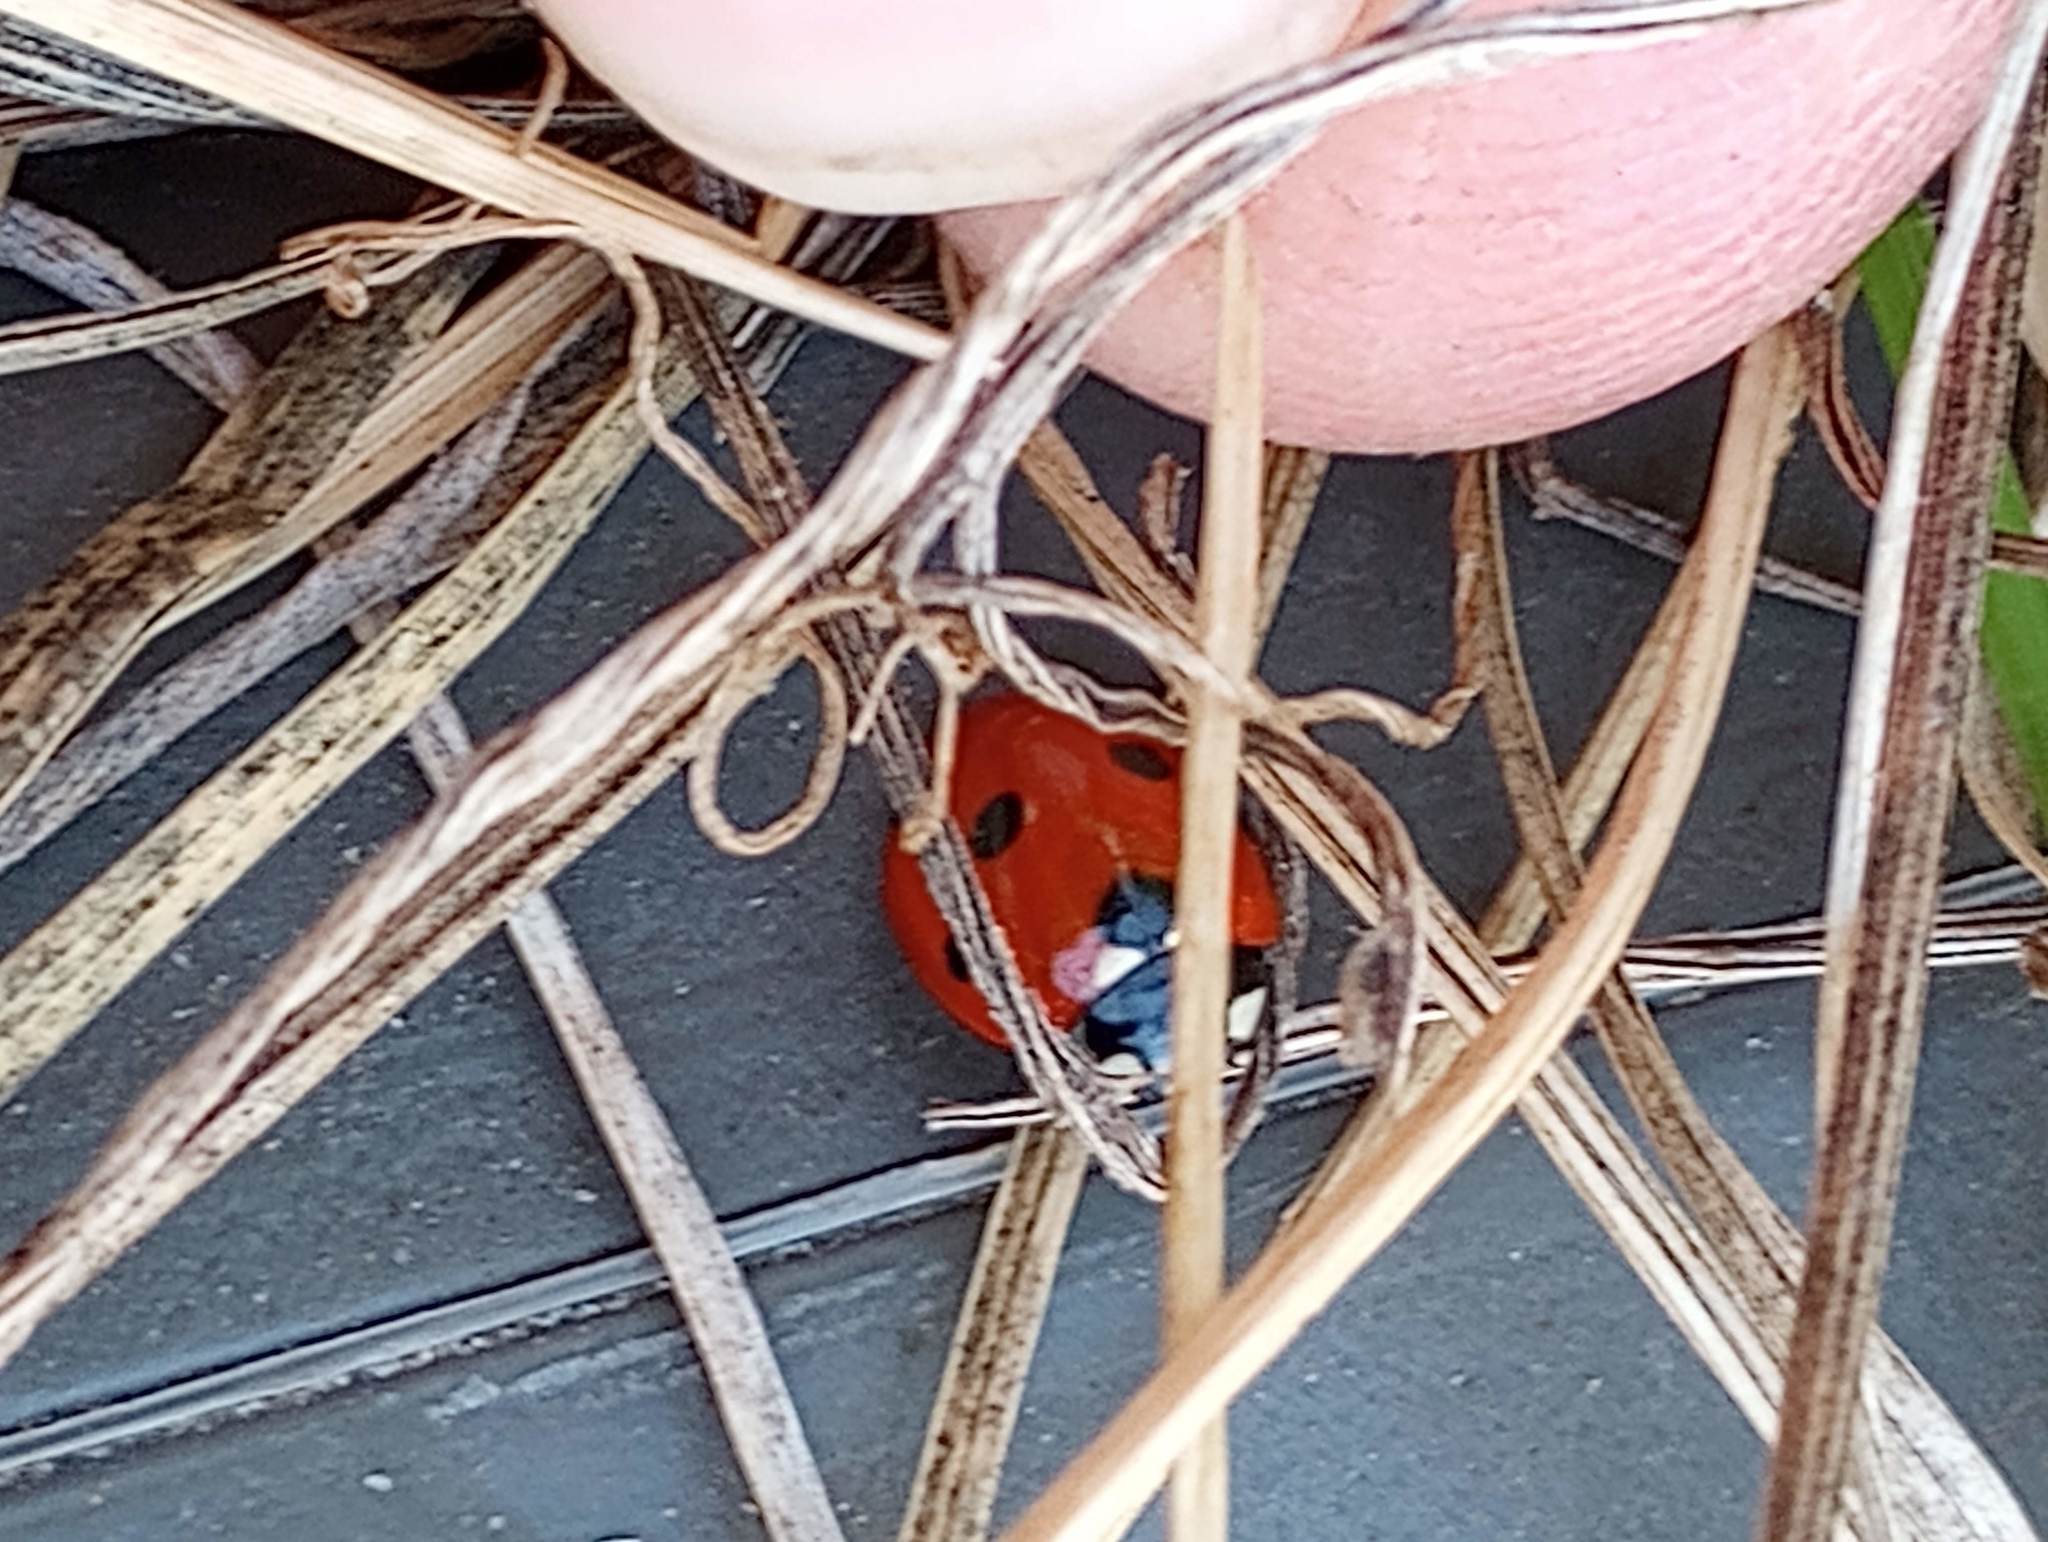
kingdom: Animalia
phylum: Arthropoda
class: Insecta
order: Coleoptera
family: Coccinellidae
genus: Coccinella
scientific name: Coccinella septempunctata
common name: Sevenspotted lady beetle
